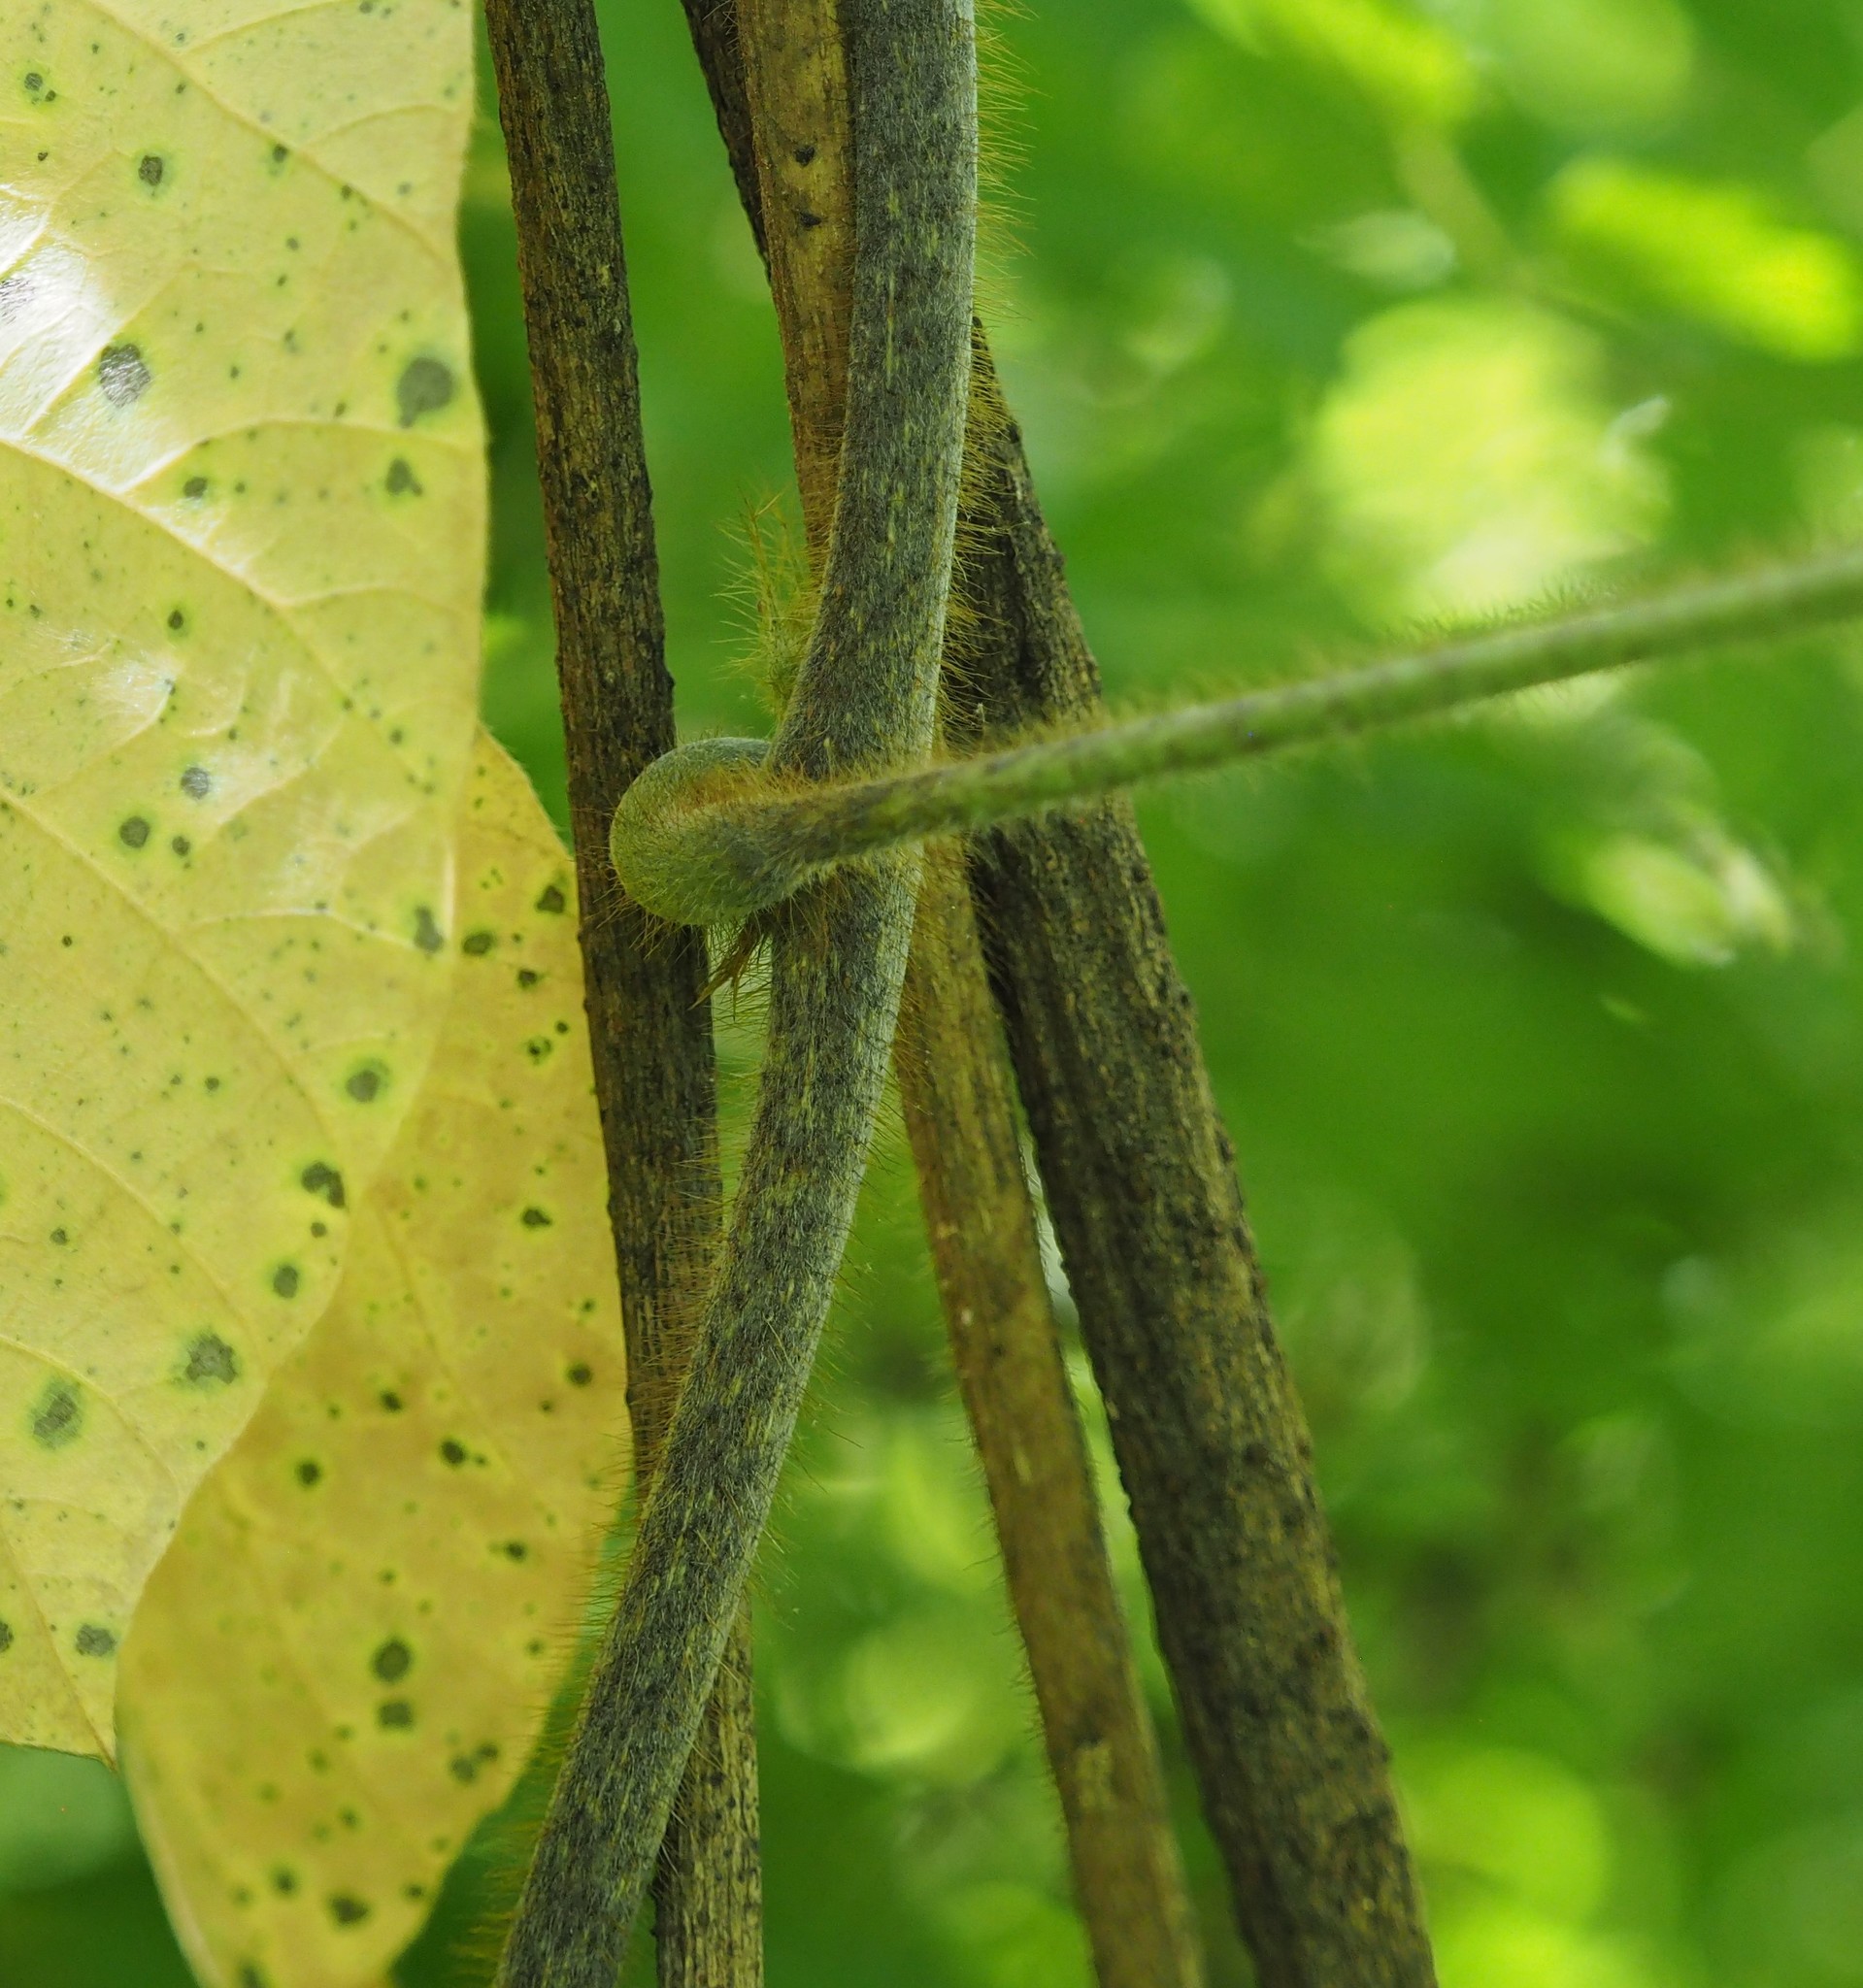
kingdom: Plantae
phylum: Tracheophyta
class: Magnoliopsida
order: Fabales
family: Fabaceae
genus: Pueraria
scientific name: Pueraria montana
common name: Kudzu
